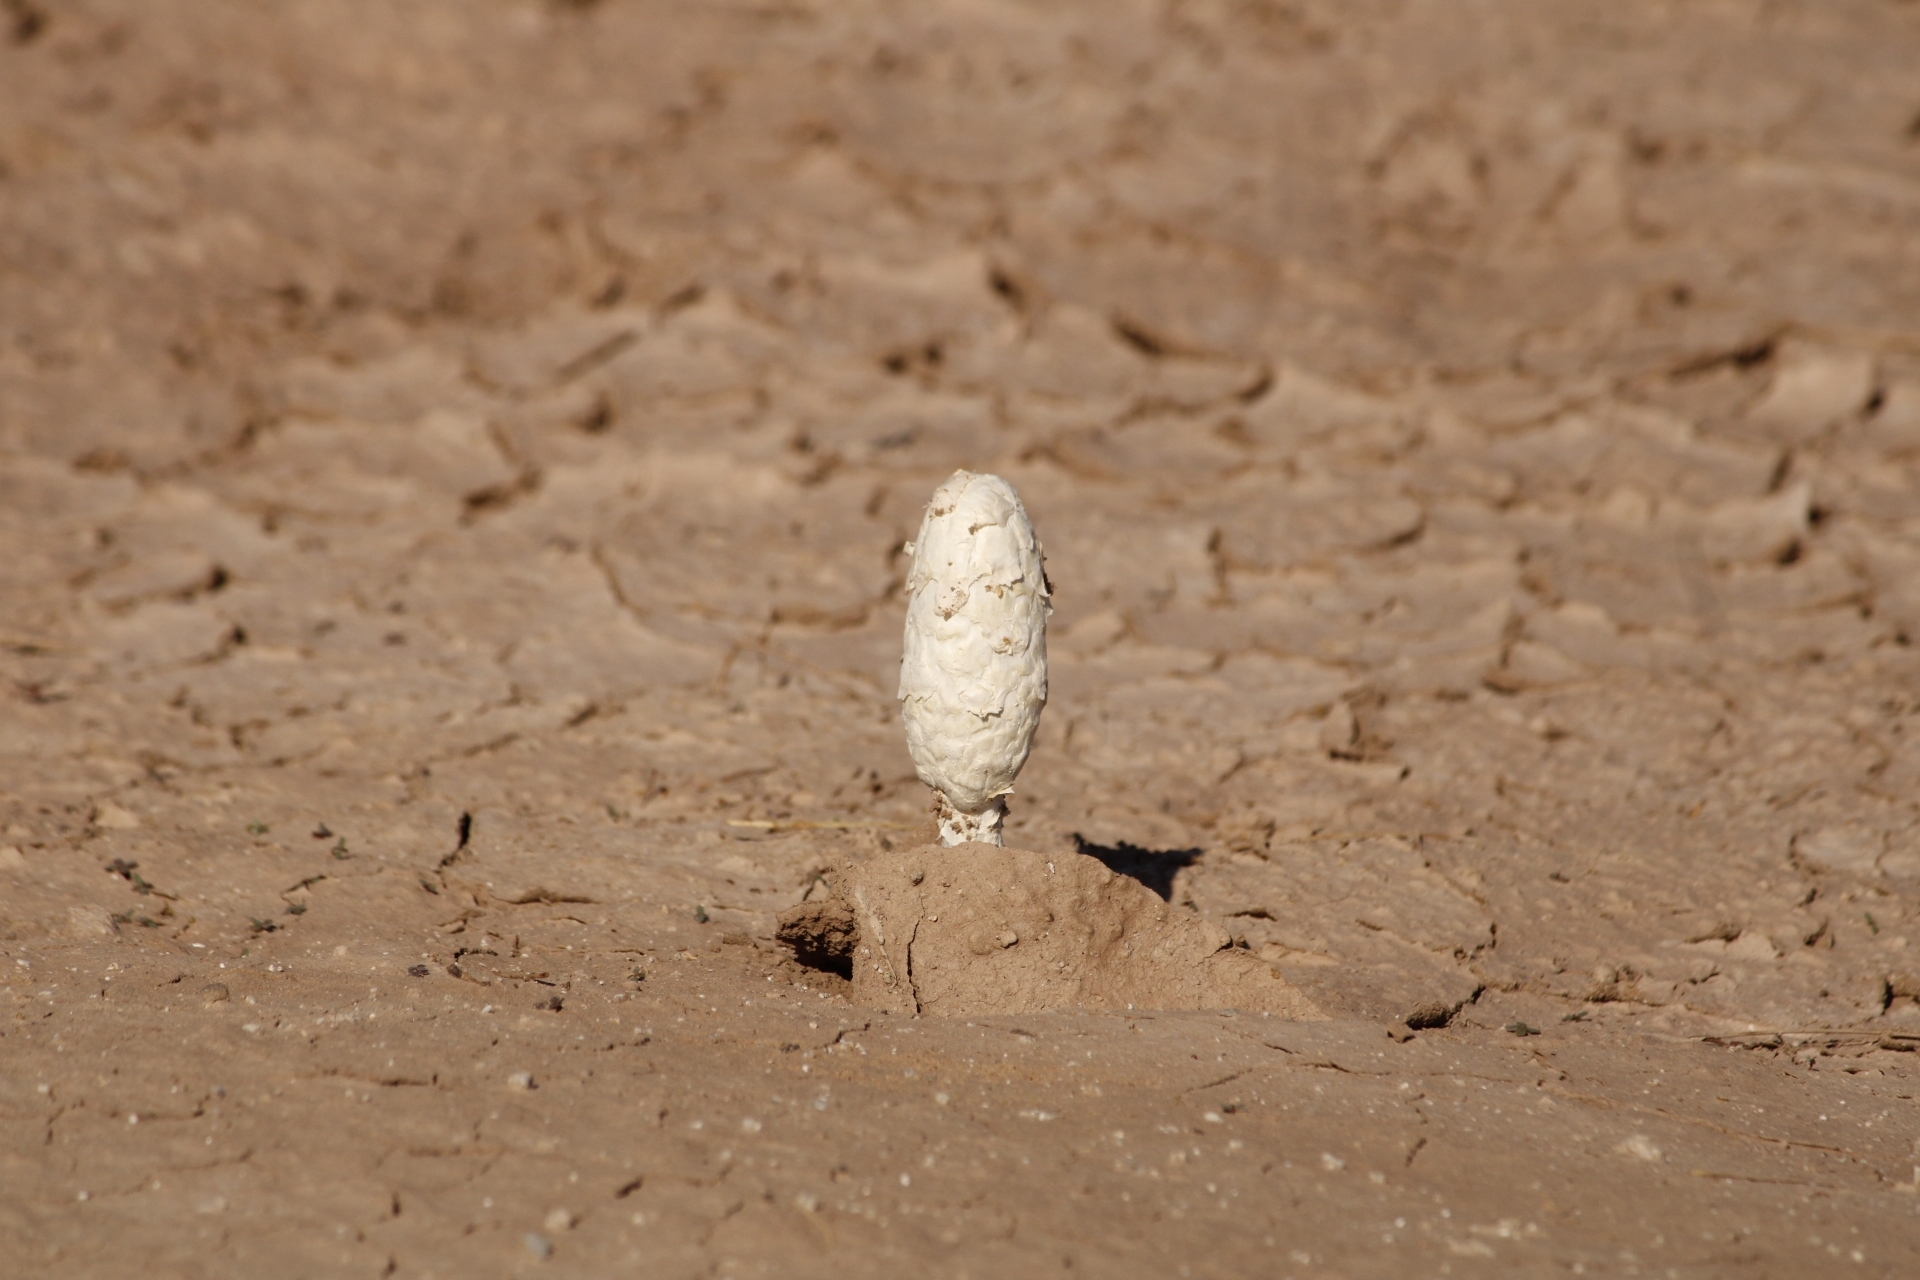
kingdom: Fungi
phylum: Basidiomycota
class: Agaricomycetes
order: Agaricales
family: Agaricaceae
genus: Podaxis
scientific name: Podaxis pistillaris
